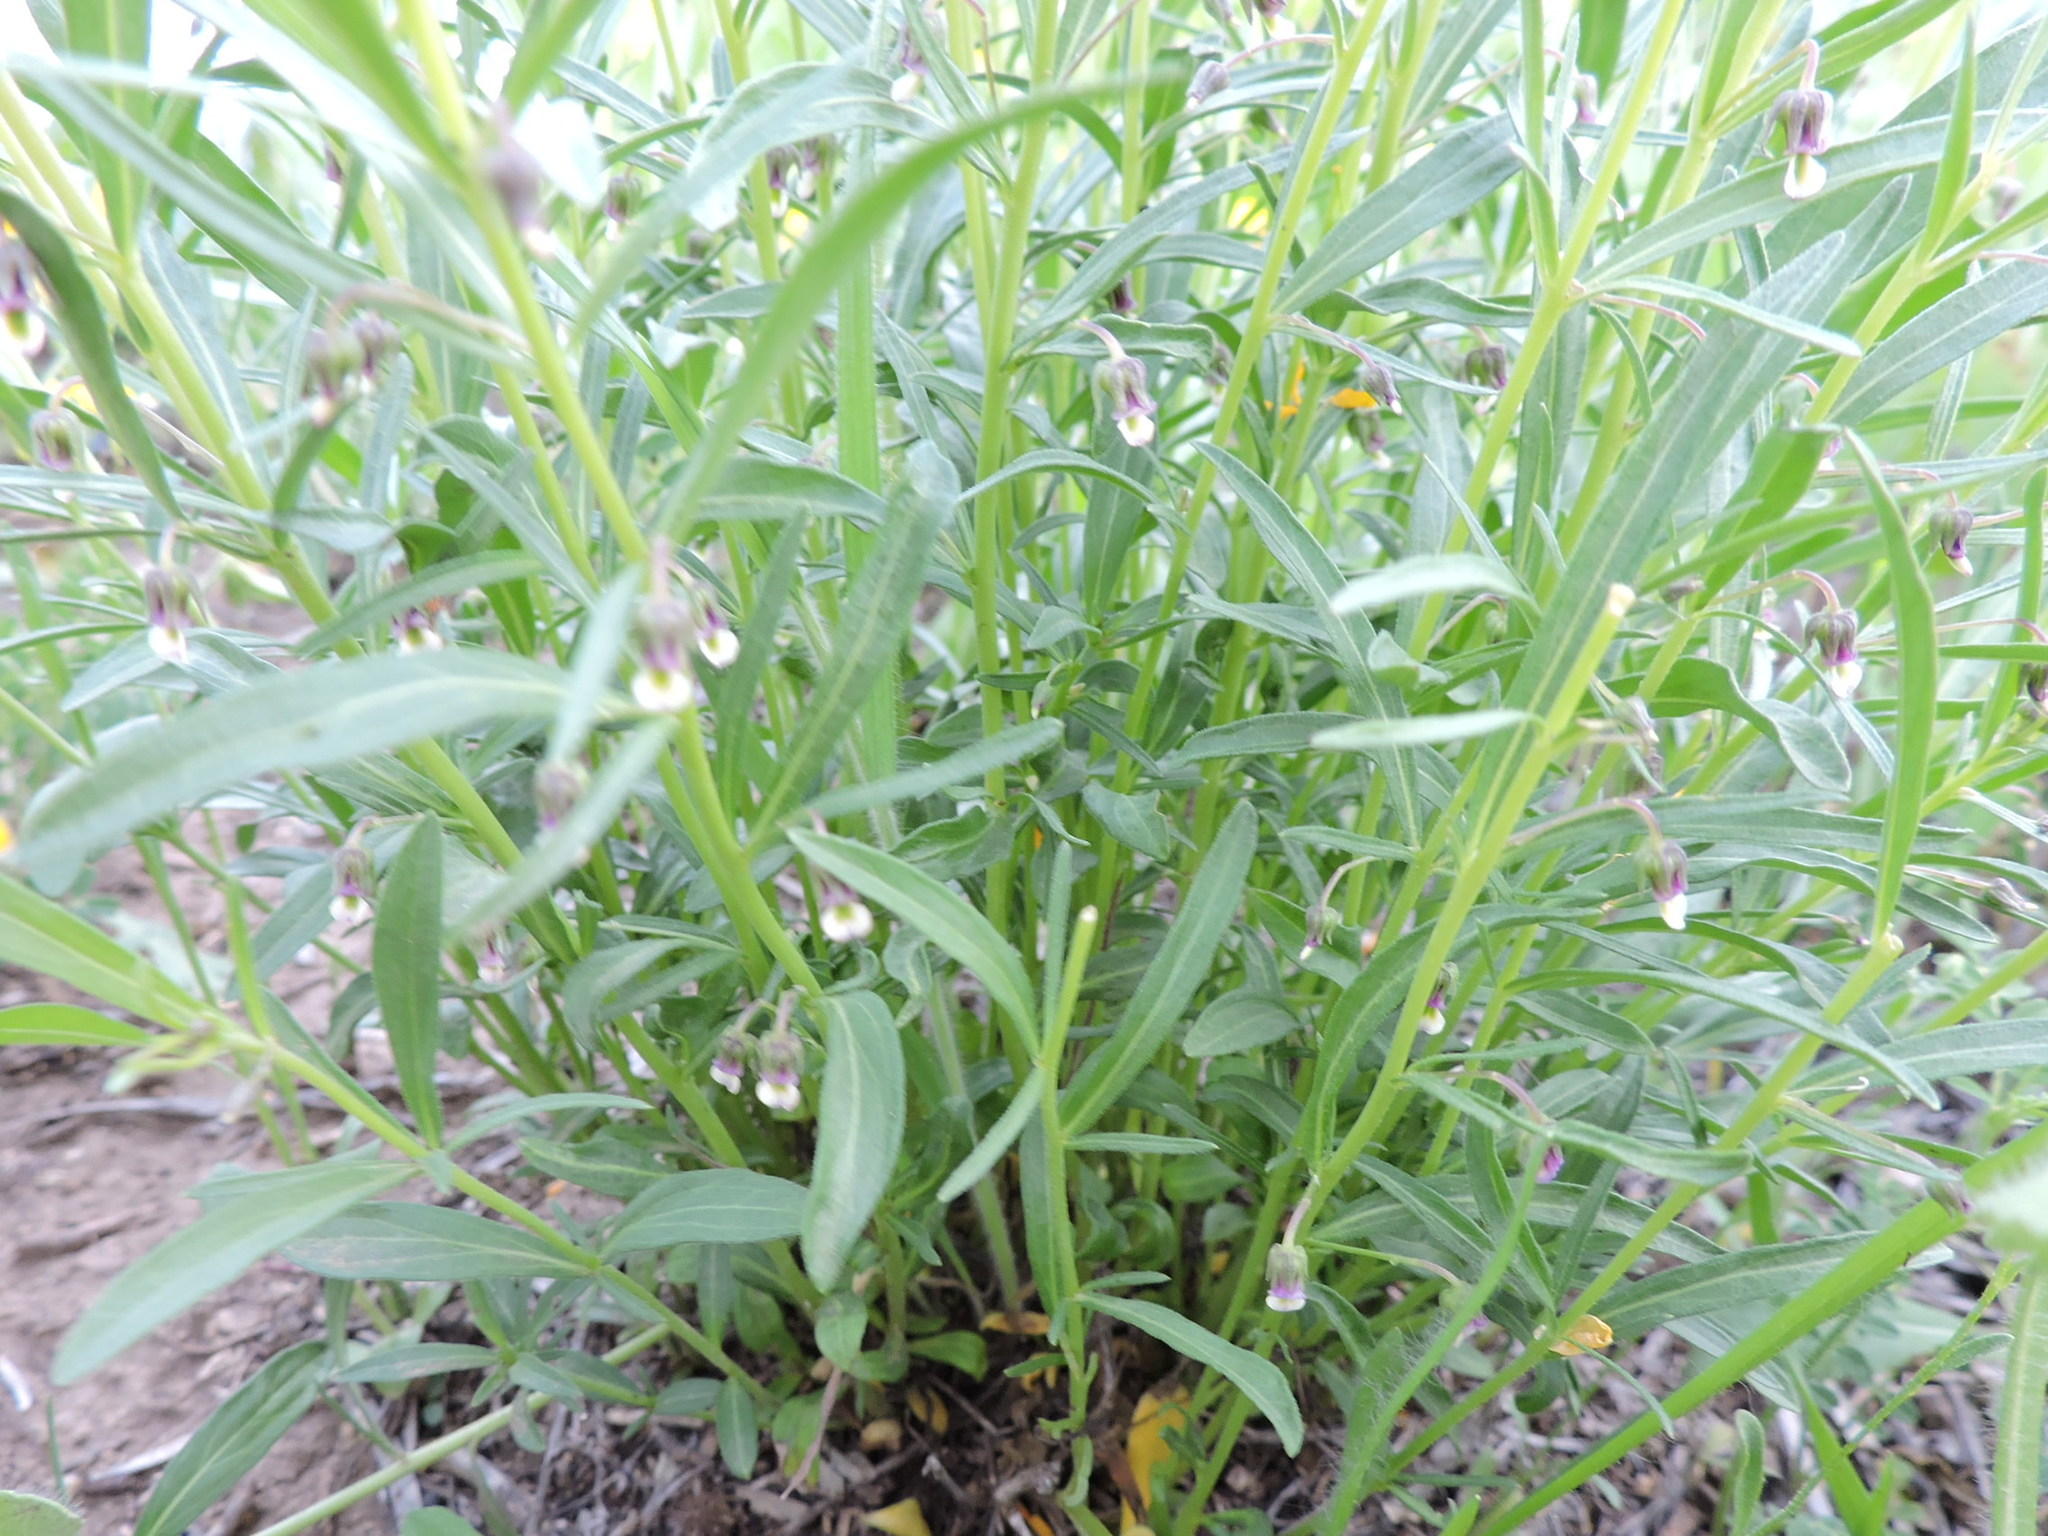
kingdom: Plantae
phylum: Tracheophyta
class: Magnoliopsida
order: Malpighiales
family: Violaceae
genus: Pombalia
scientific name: Pombalia verticillata
